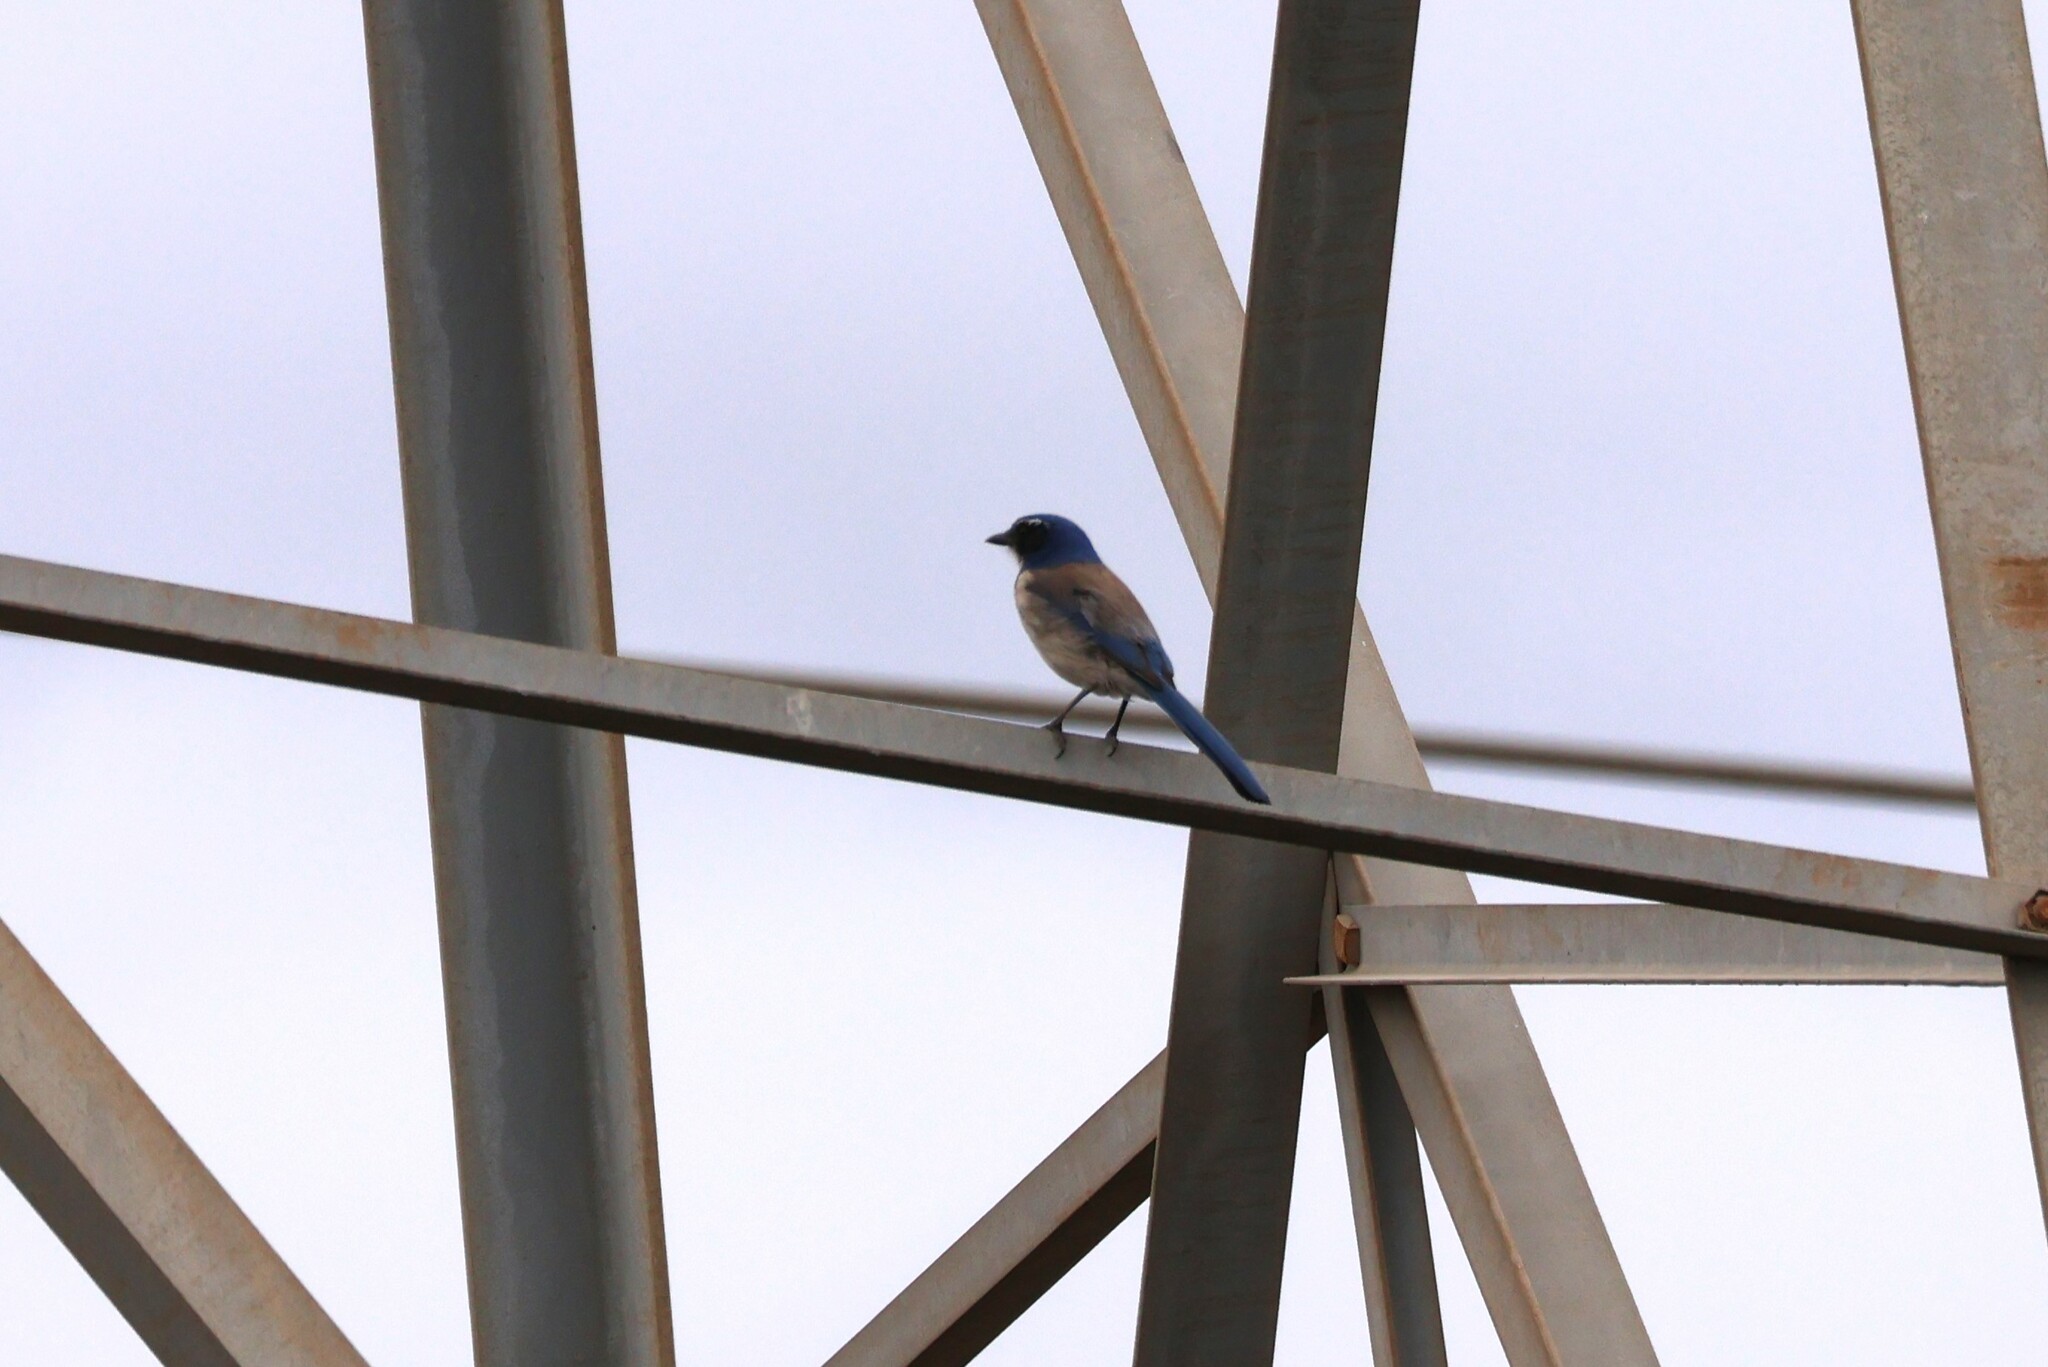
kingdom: Animalia
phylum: Chordata
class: Aves
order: Passeriformes
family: Corvidae
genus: Aphelocoma
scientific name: Aphelocoma californica
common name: California scrub-jay
